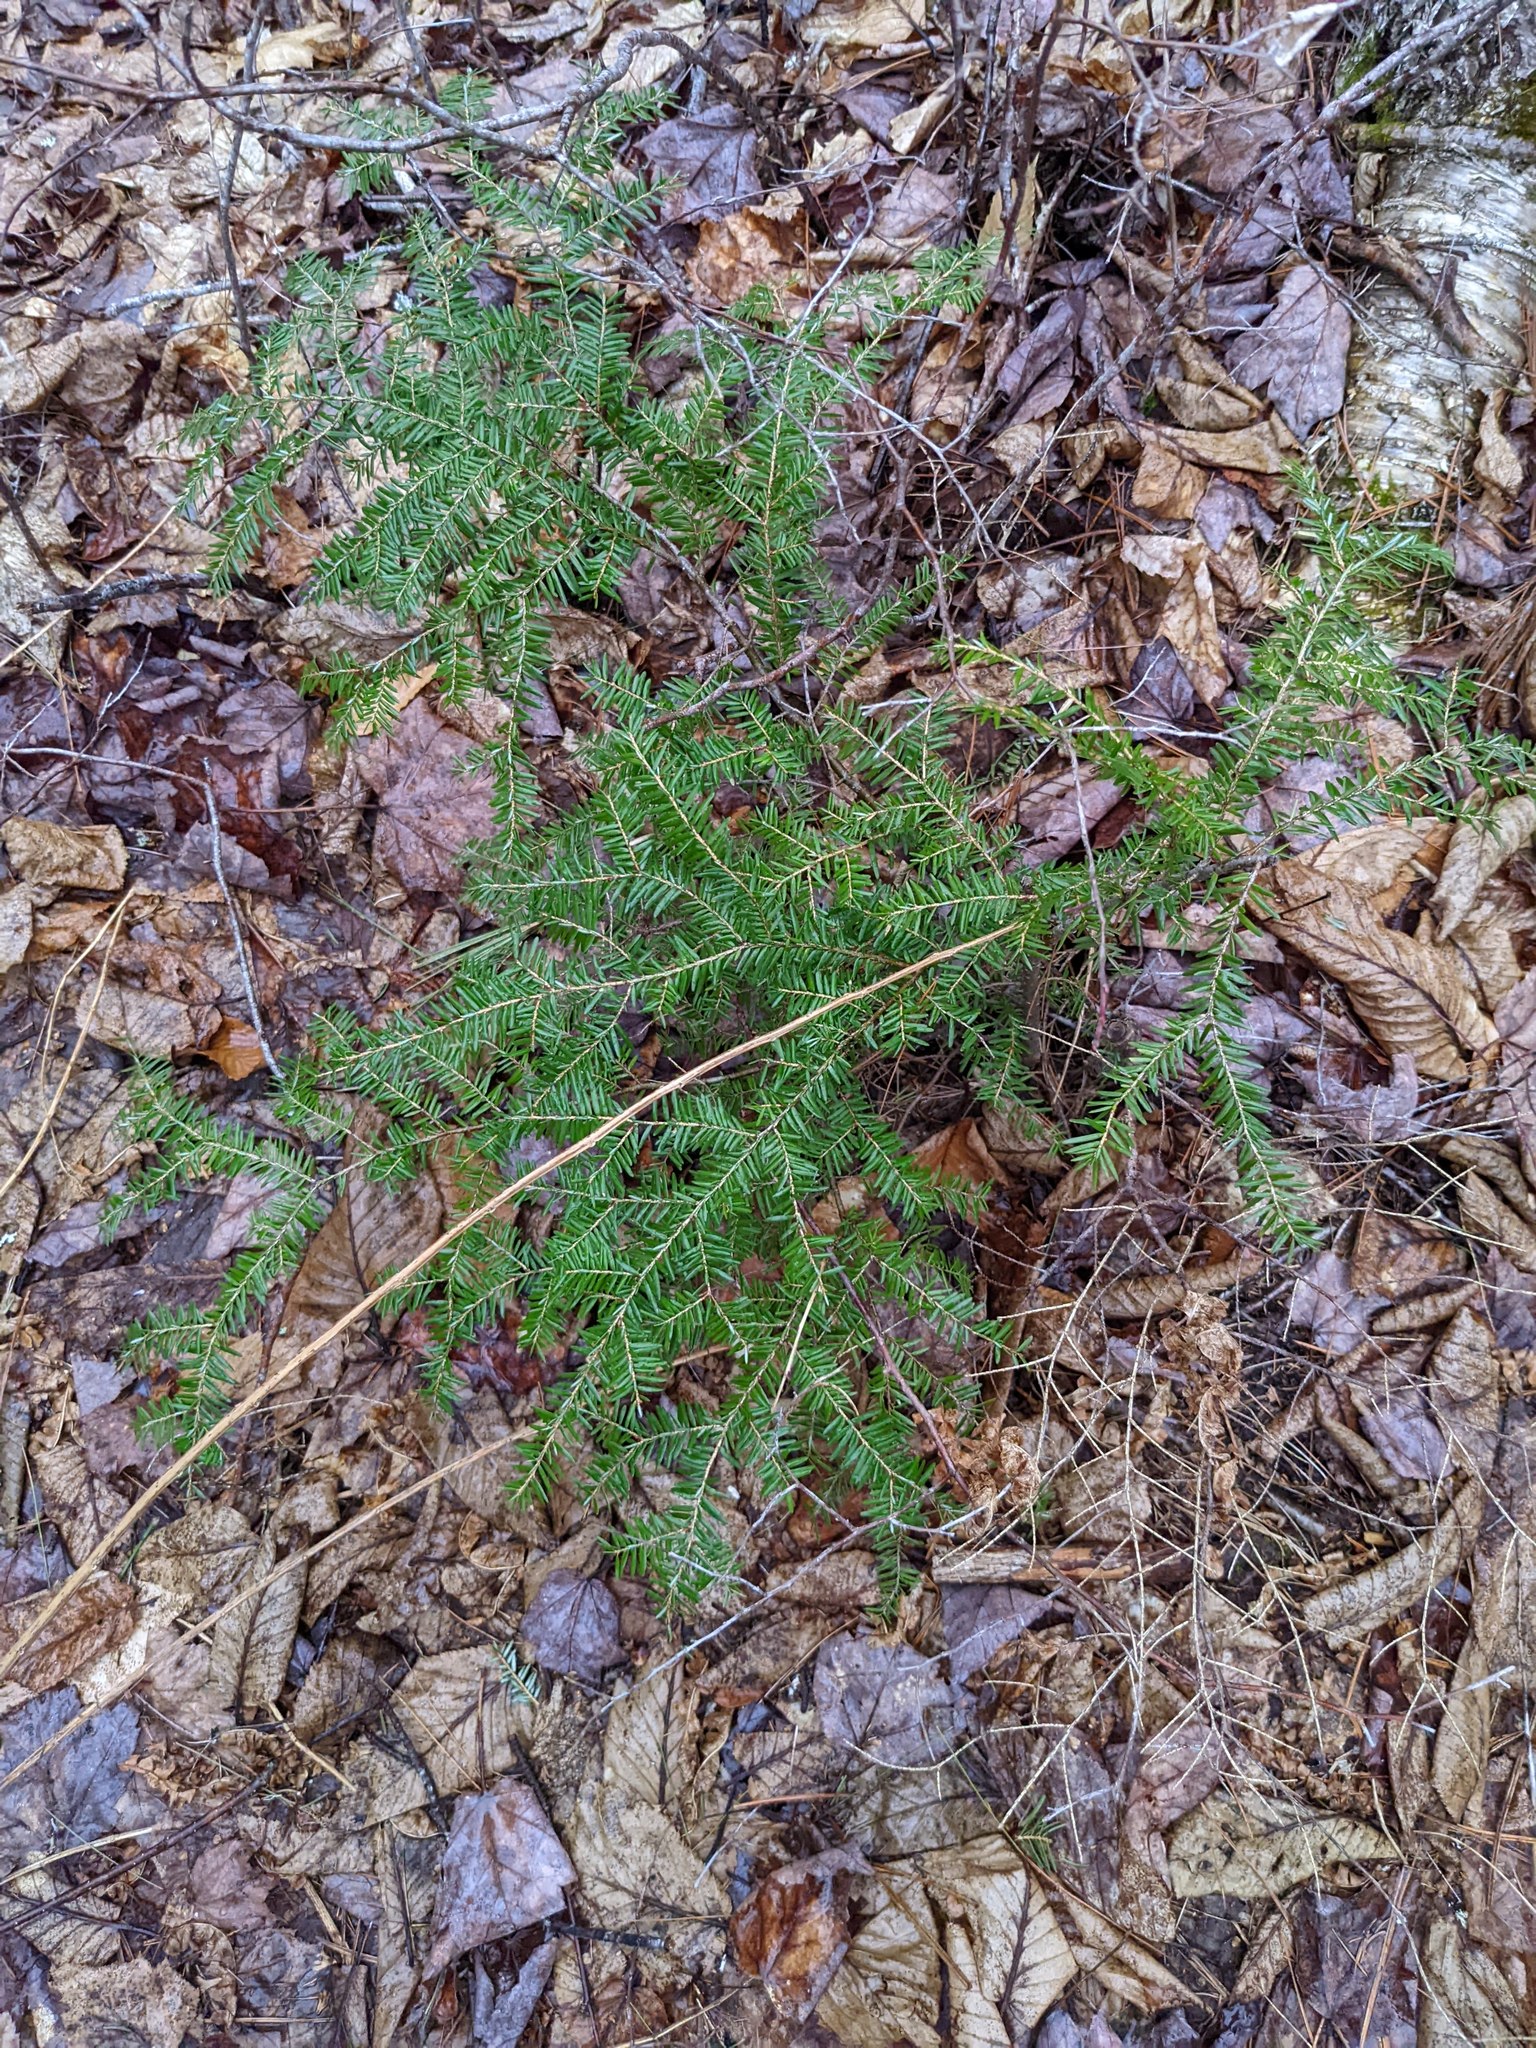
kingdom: Plantae
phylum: Tracheophyta
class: Pinopsida
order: Pinales
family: Pinaceae
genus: Tsuga
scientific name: Tsuga canadensis
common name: Eastern hemlock
